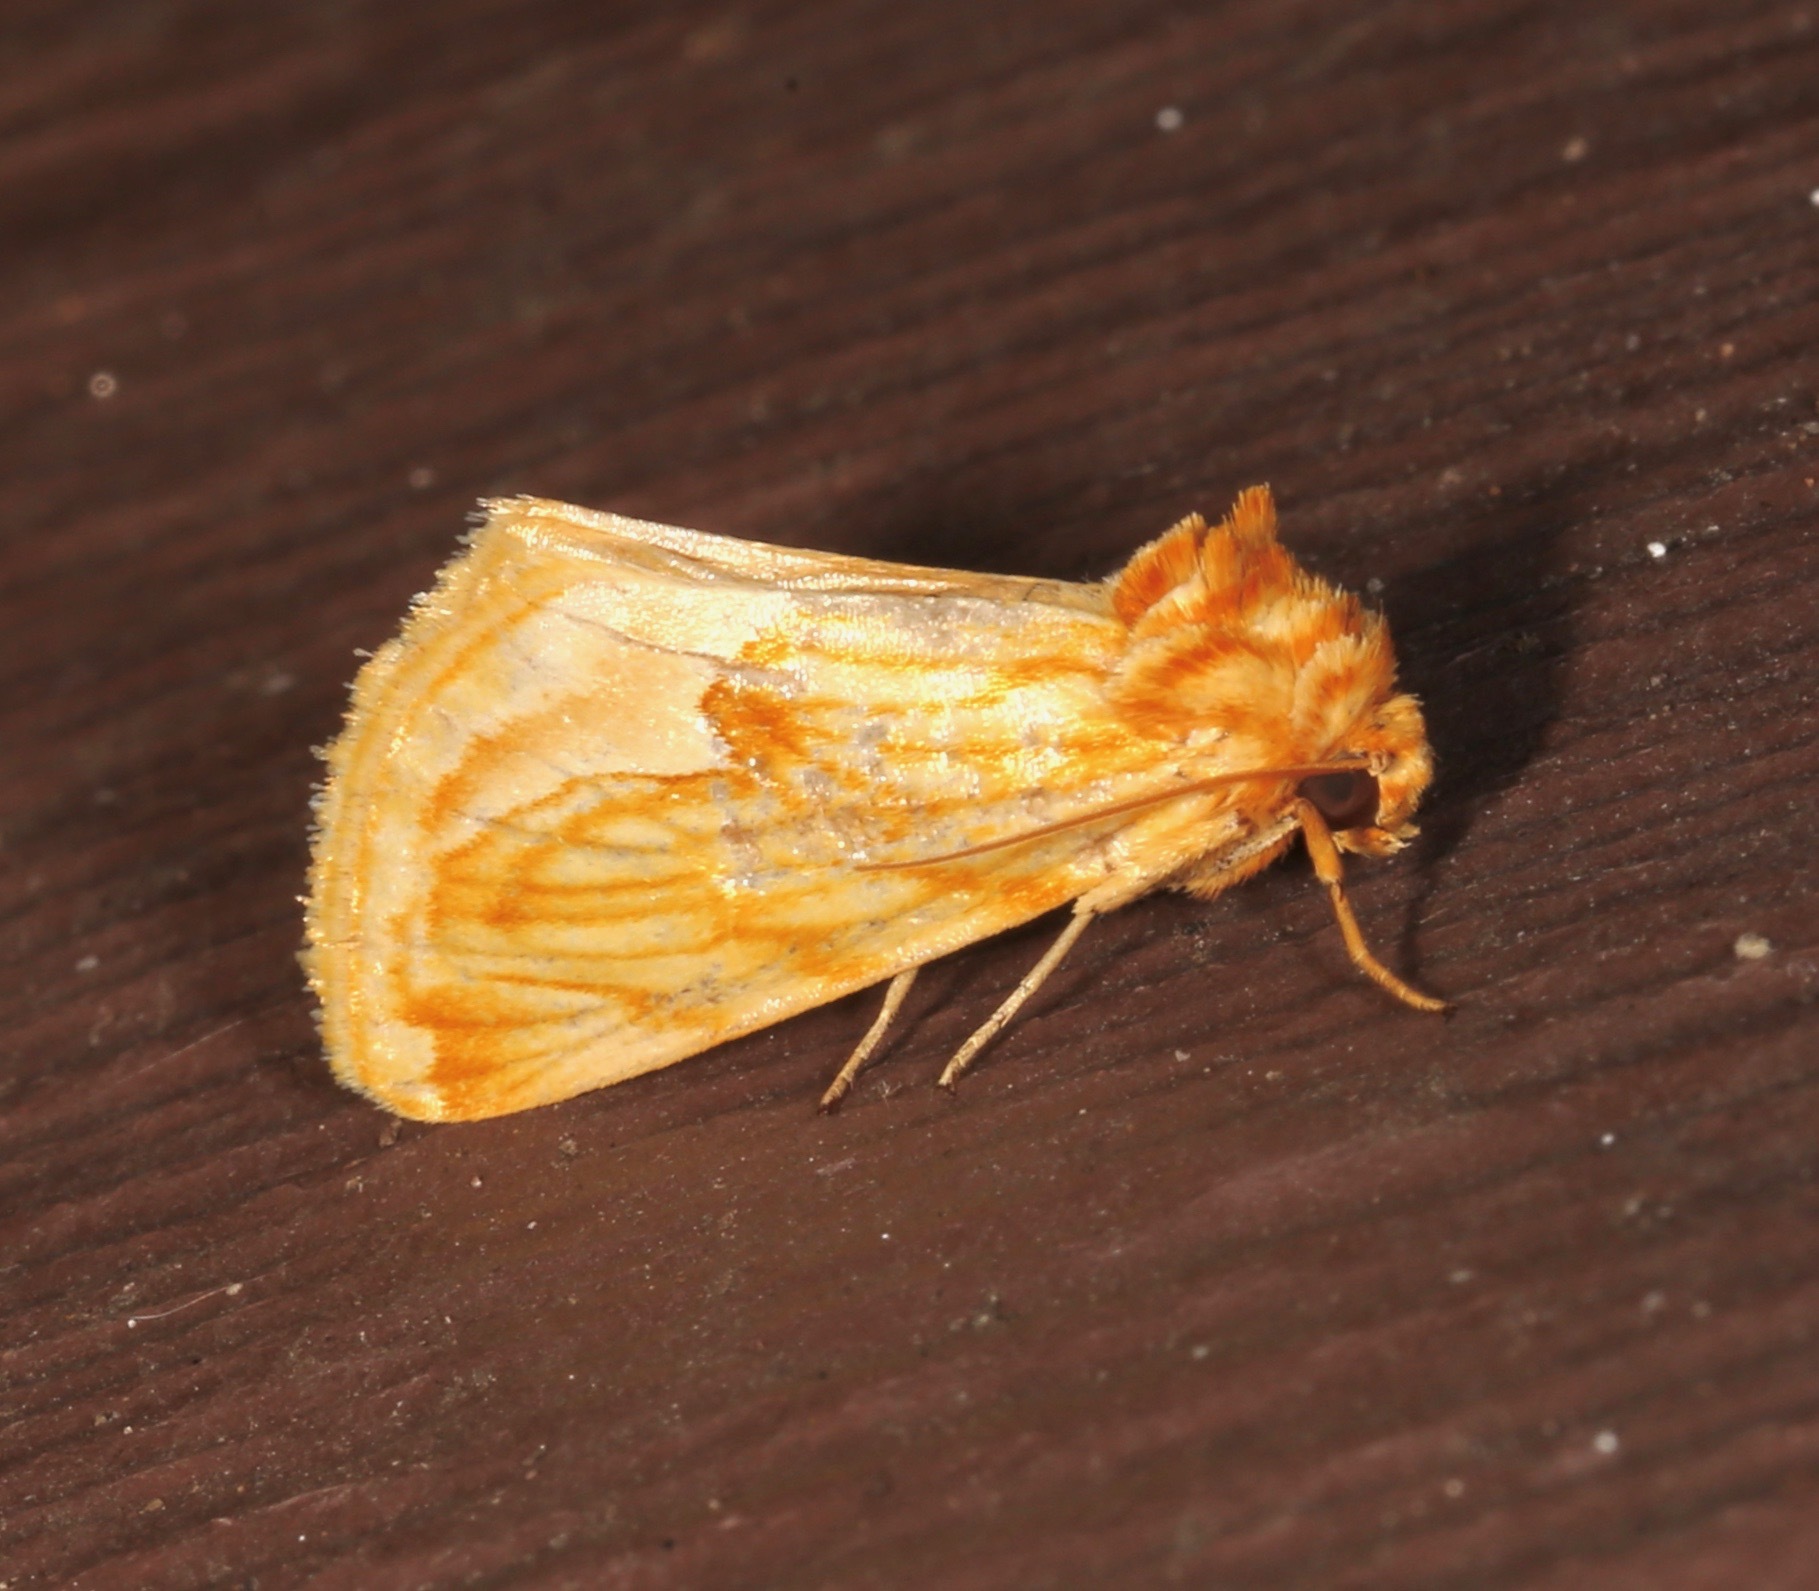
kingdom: Animalia
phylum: Arthropoda
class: Insecta
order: Lepidoptera
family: Noctuidae
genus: Cirrhophanus
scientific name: Cirrhophanus dyari
